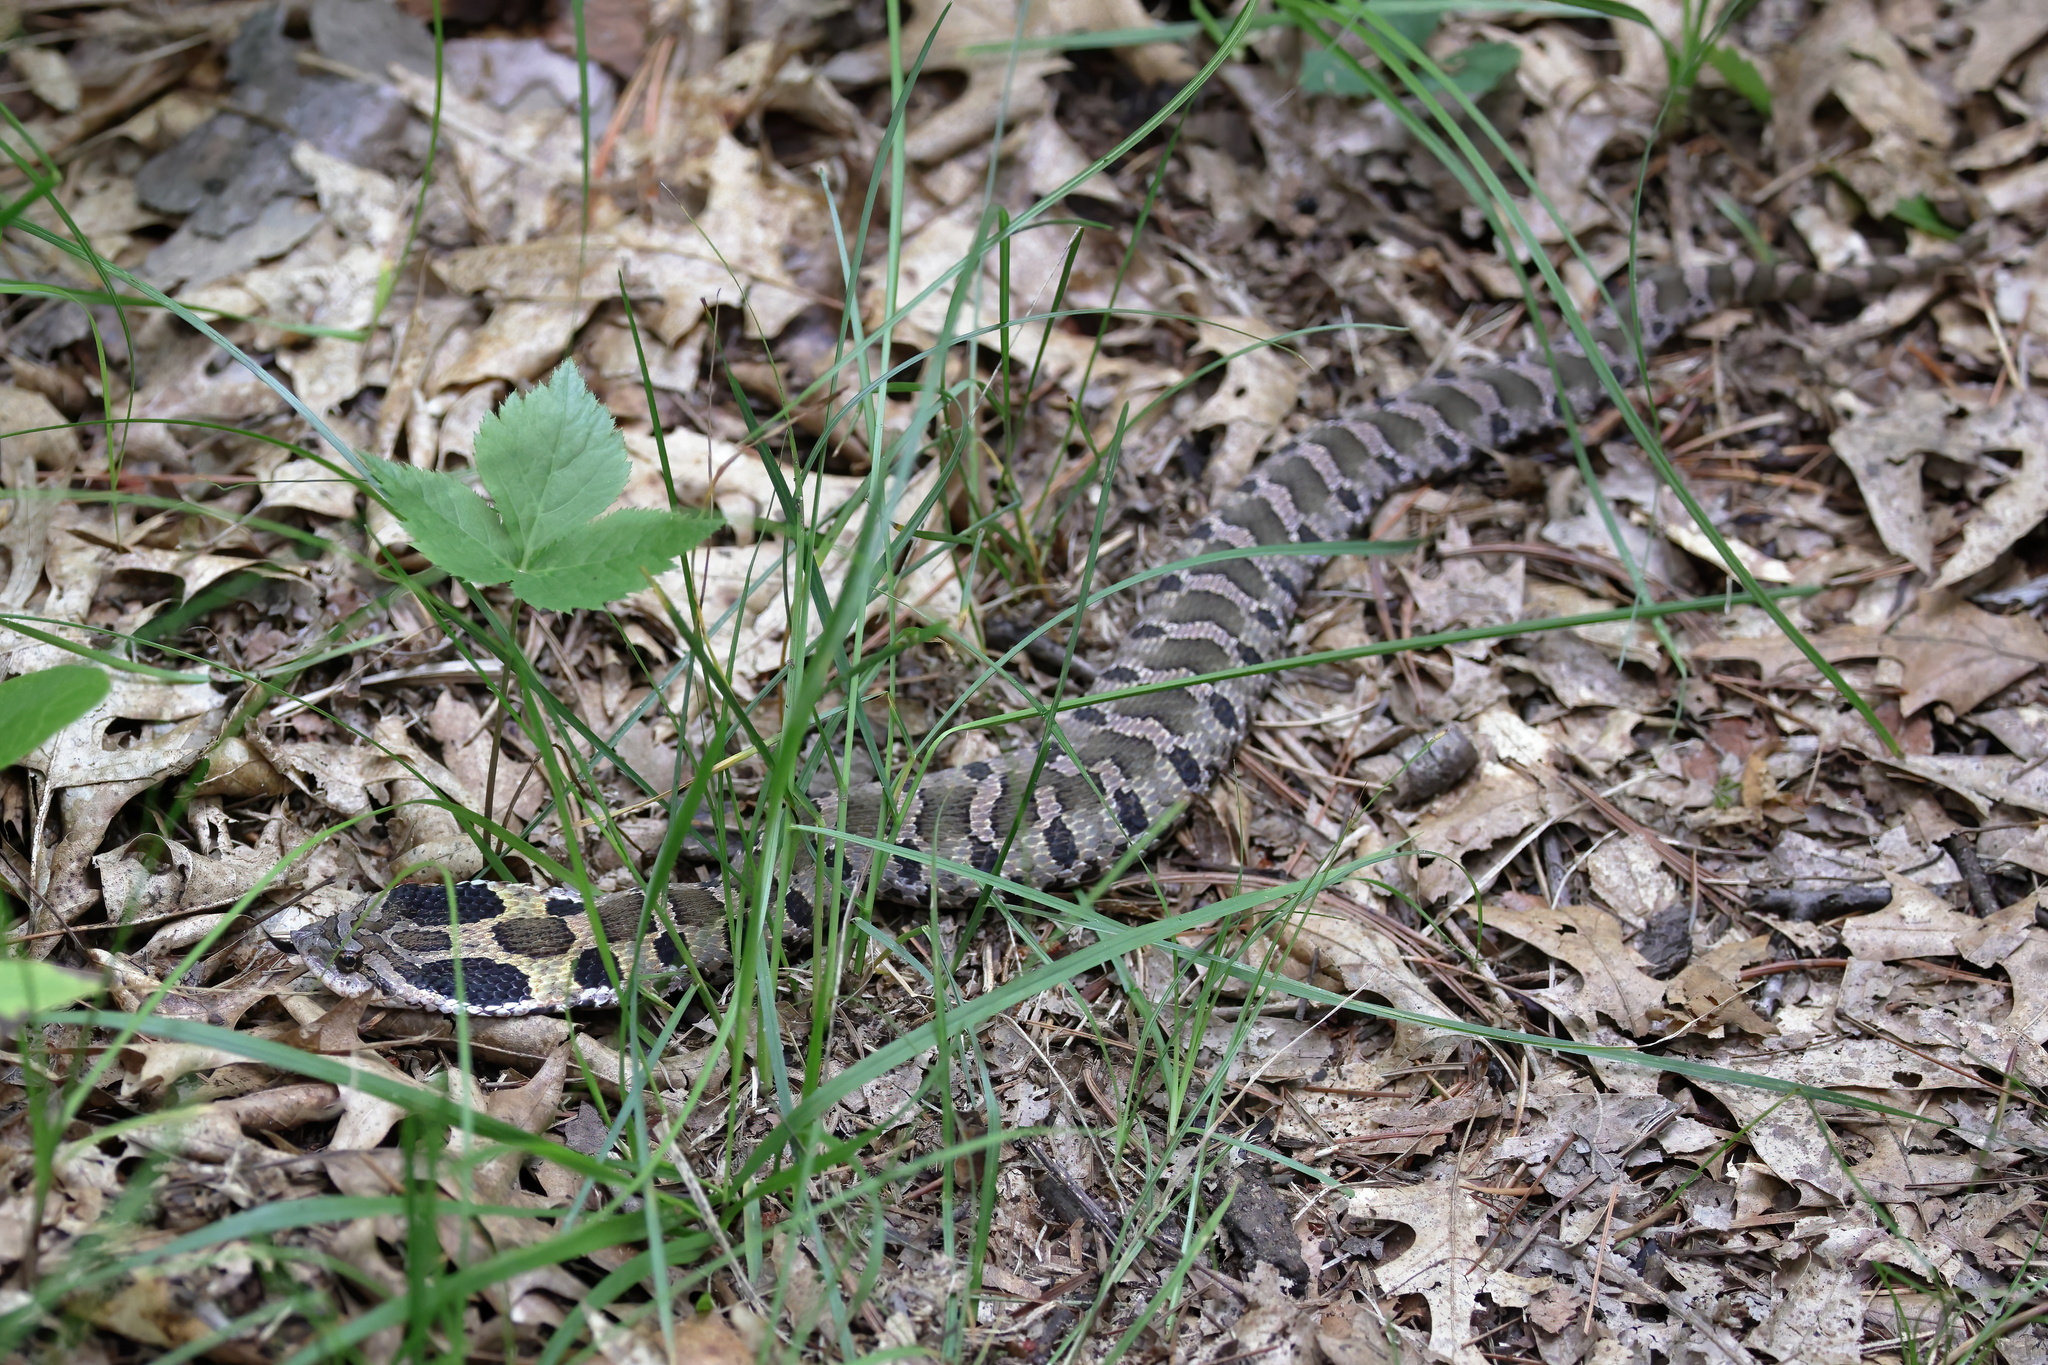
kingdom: Animalia
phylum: Chordata
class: Squamata
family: Colubridae
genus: Heterodon
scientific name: Heterodon platirhinos
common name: Eastern hognose snake
